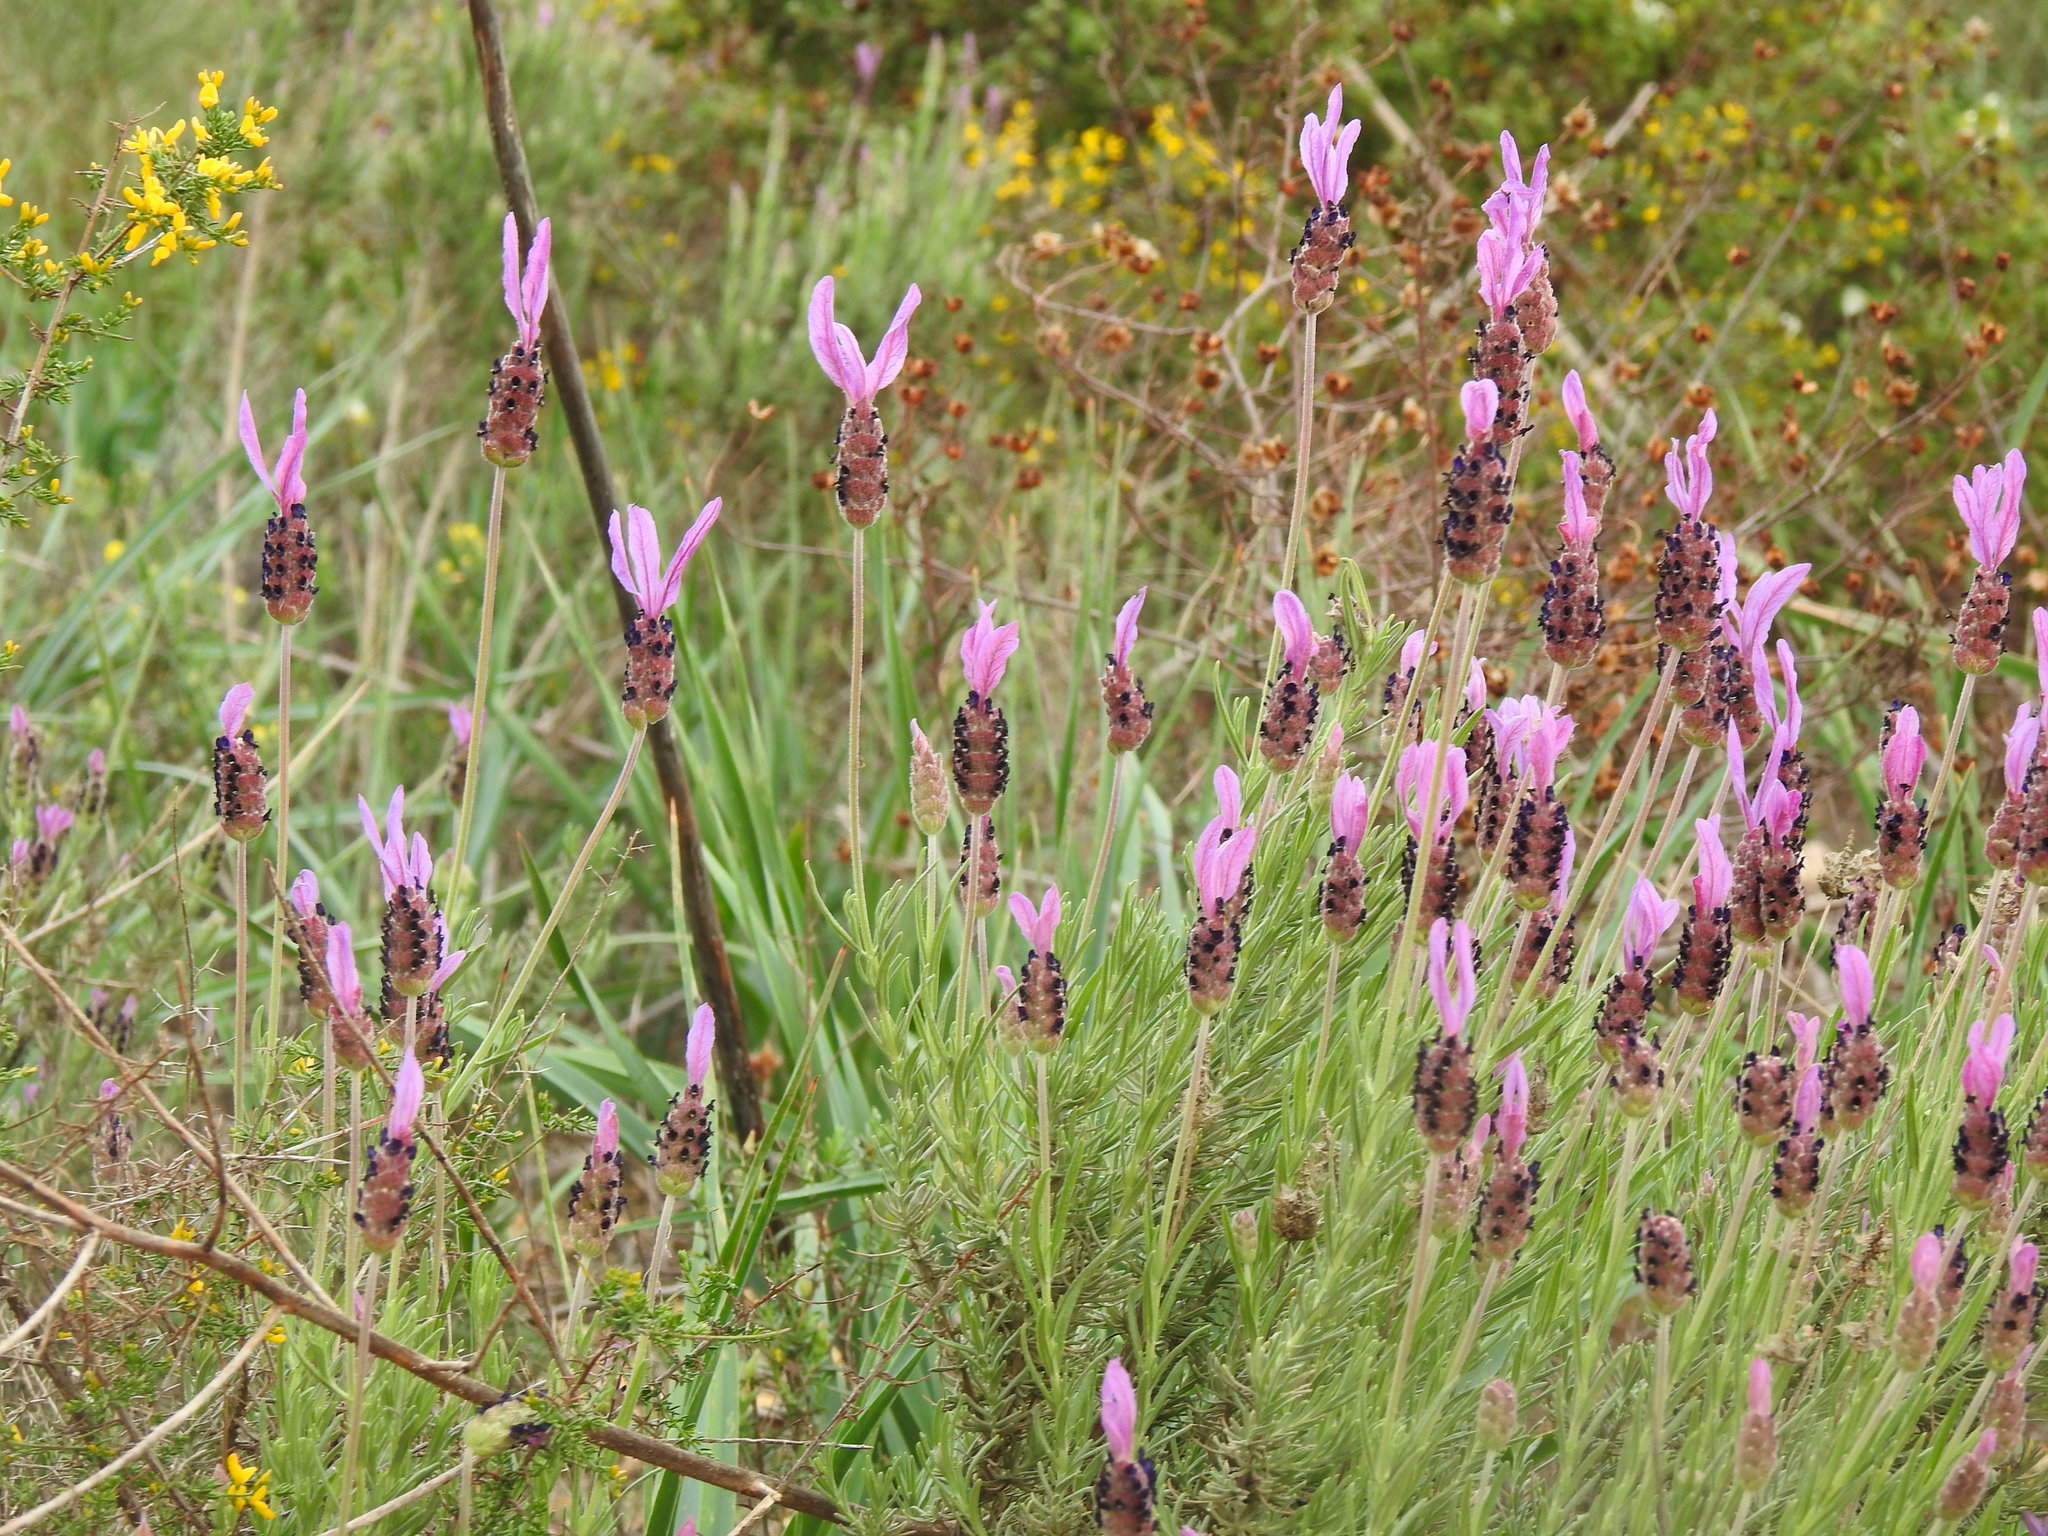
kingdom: Plantae
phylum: Tracheophyta
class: Magnoliopsida
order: Lamiales
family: Lamiaceae
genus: Lavandula
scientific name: Lavandula pedunculata
